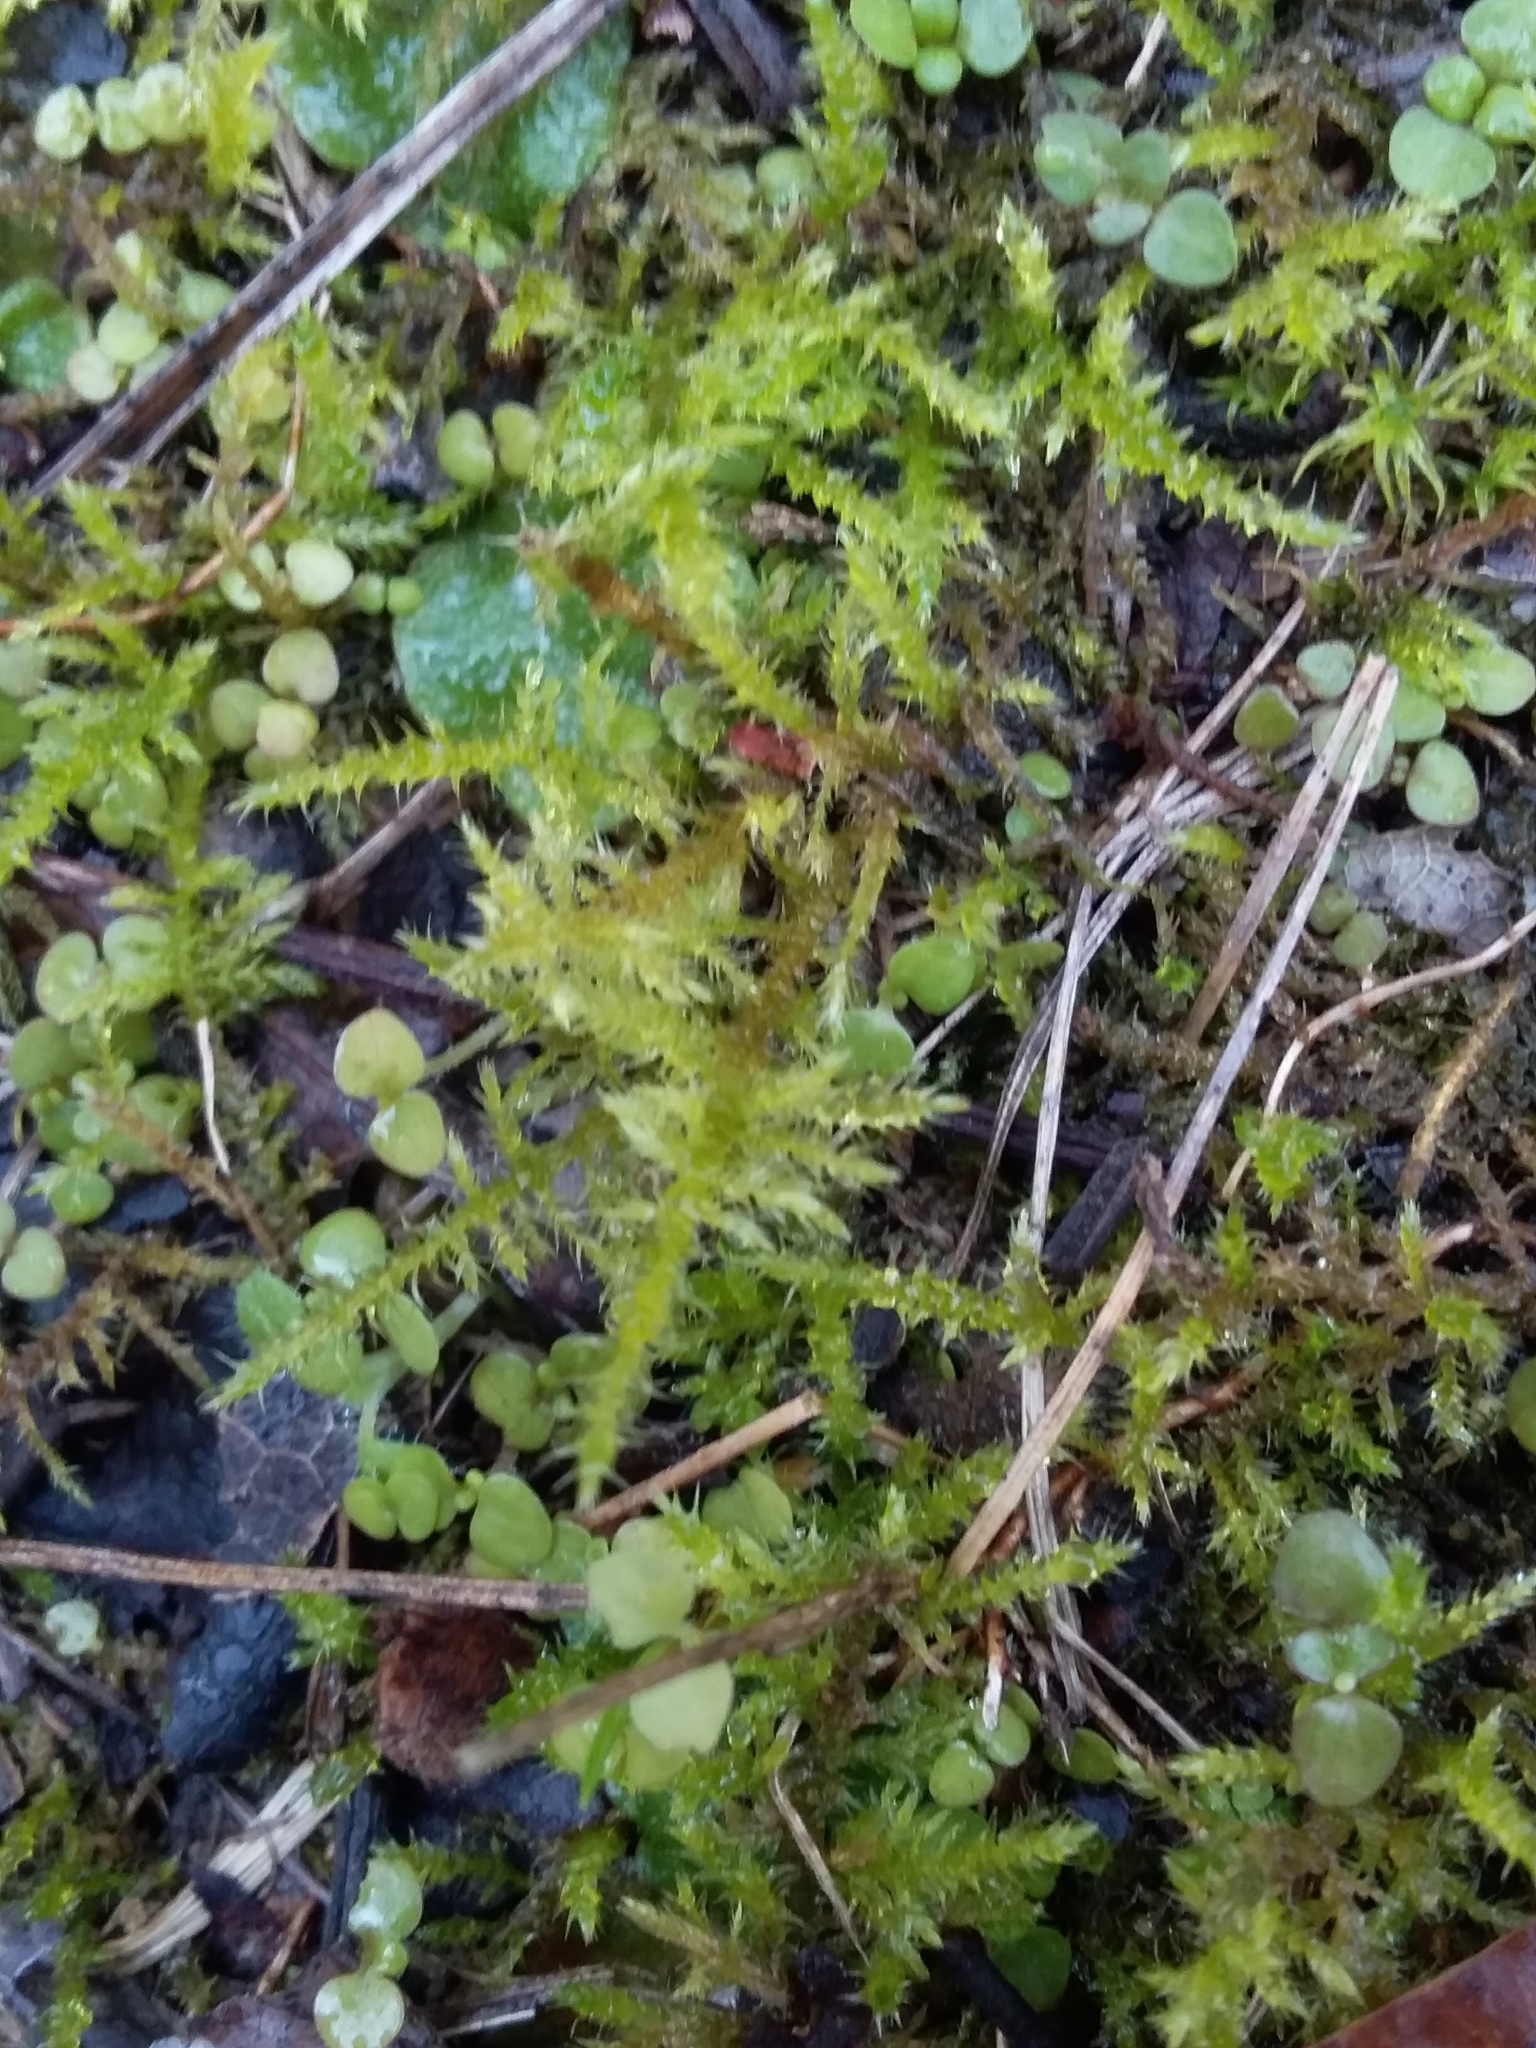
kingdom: Plantae
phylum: Bryophyta
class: Bryopsida
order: Hypnales
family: Thuidiaceae
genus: Thuidiopsis
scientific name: Thuidiopsis sparsa
